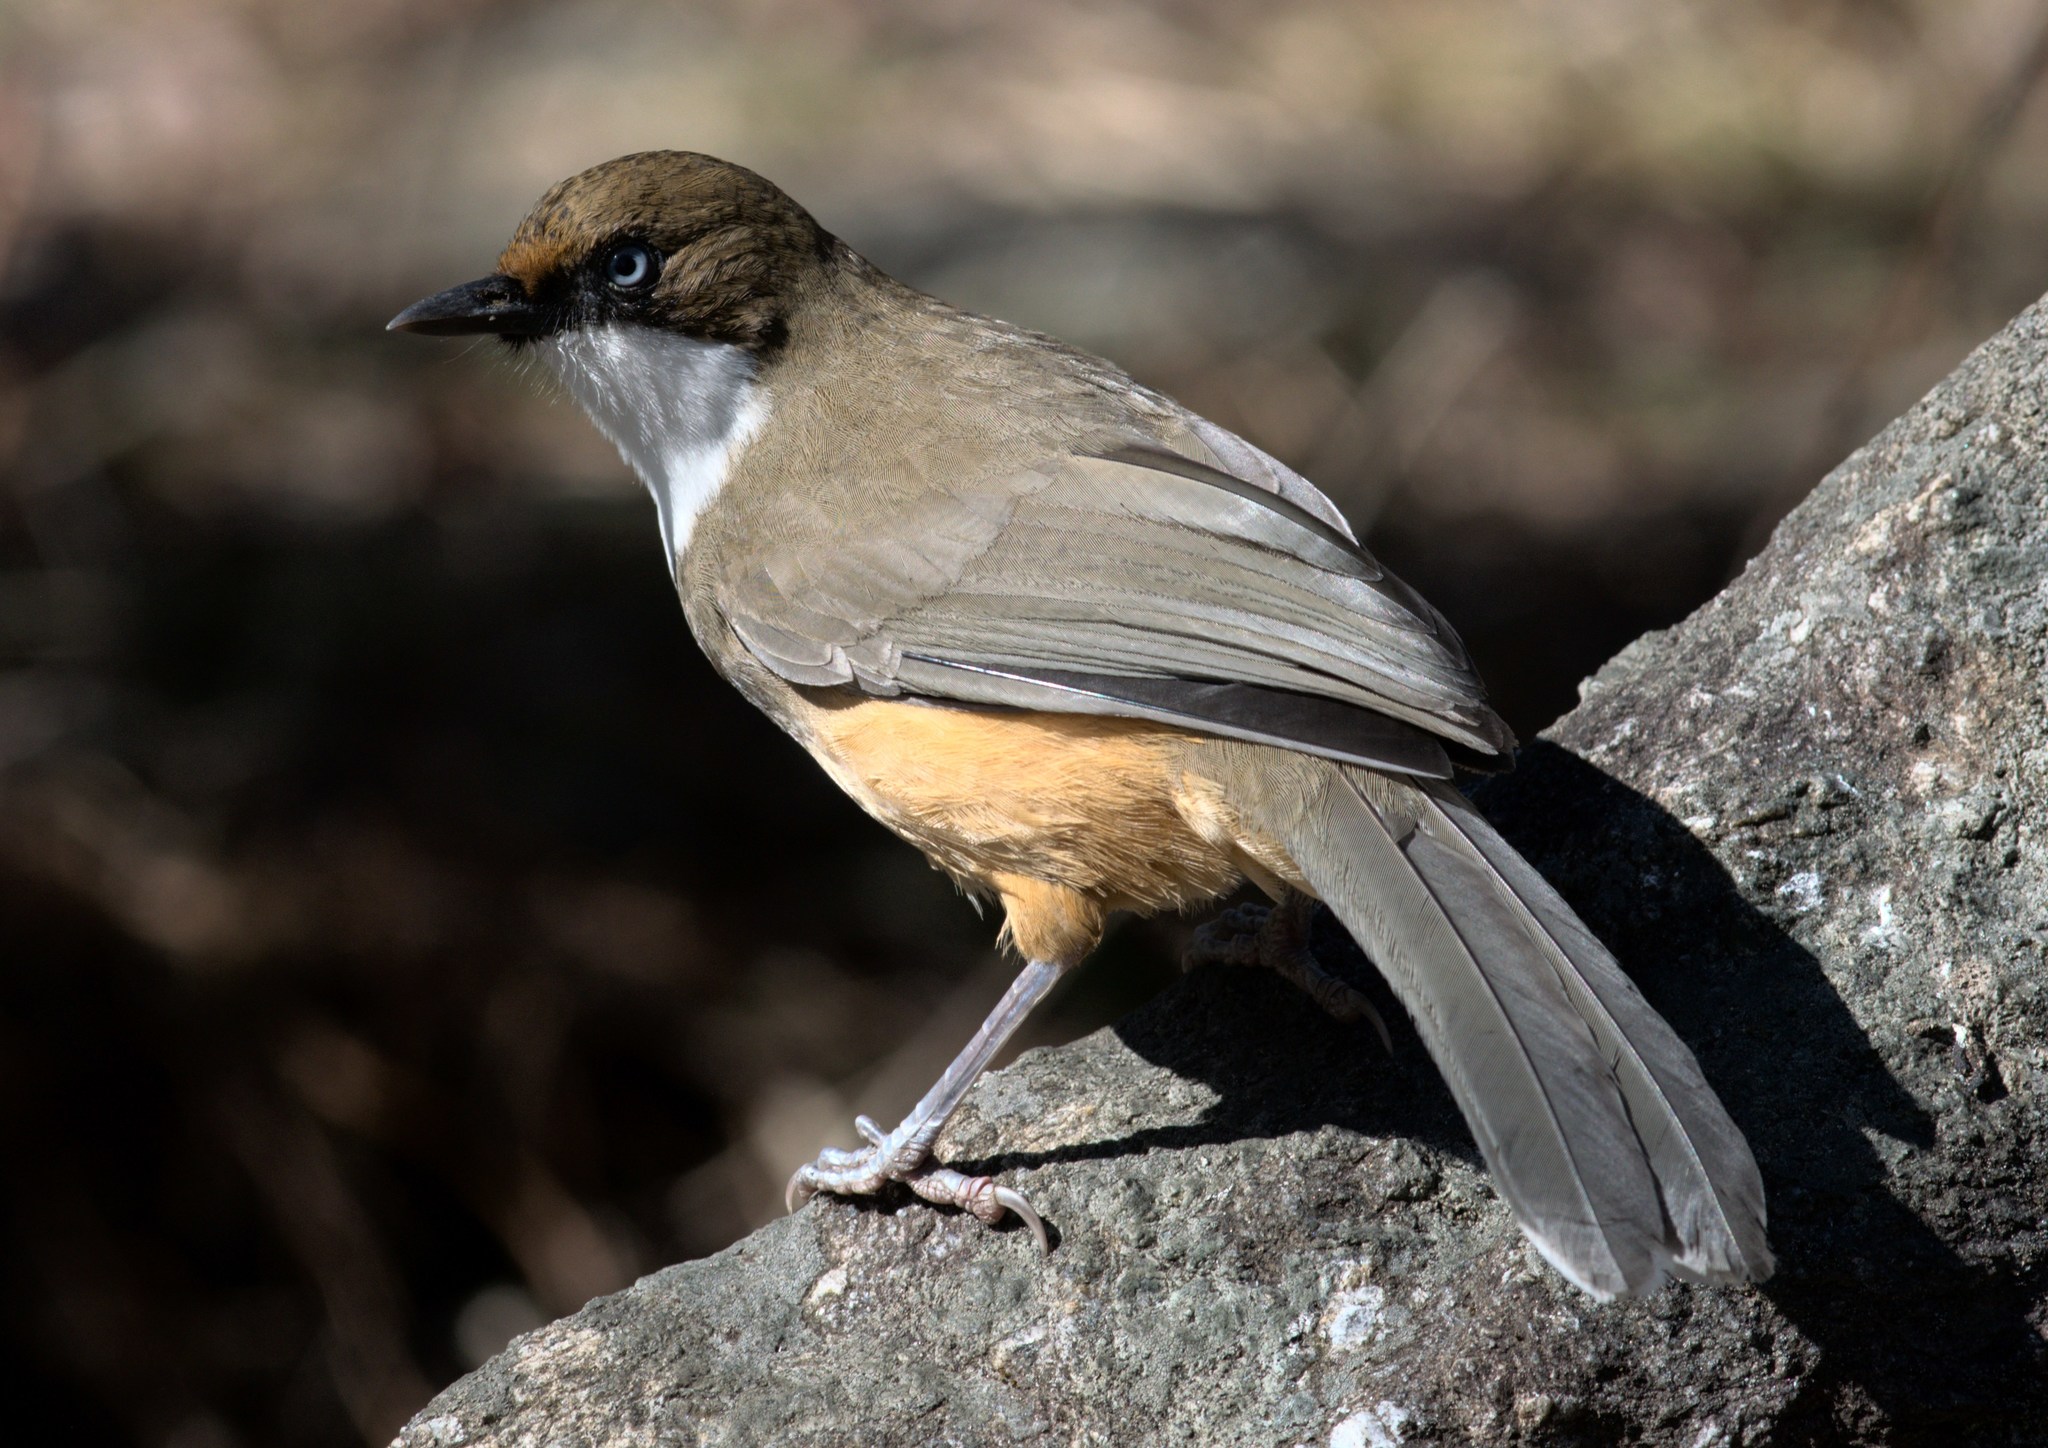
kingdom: Animalia
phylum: Chordata
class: Aves
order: Passeriformes
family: Leiothrichidae
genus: Garrulax
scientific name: Garrulax albogularis
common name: White-throated laughingthrush
